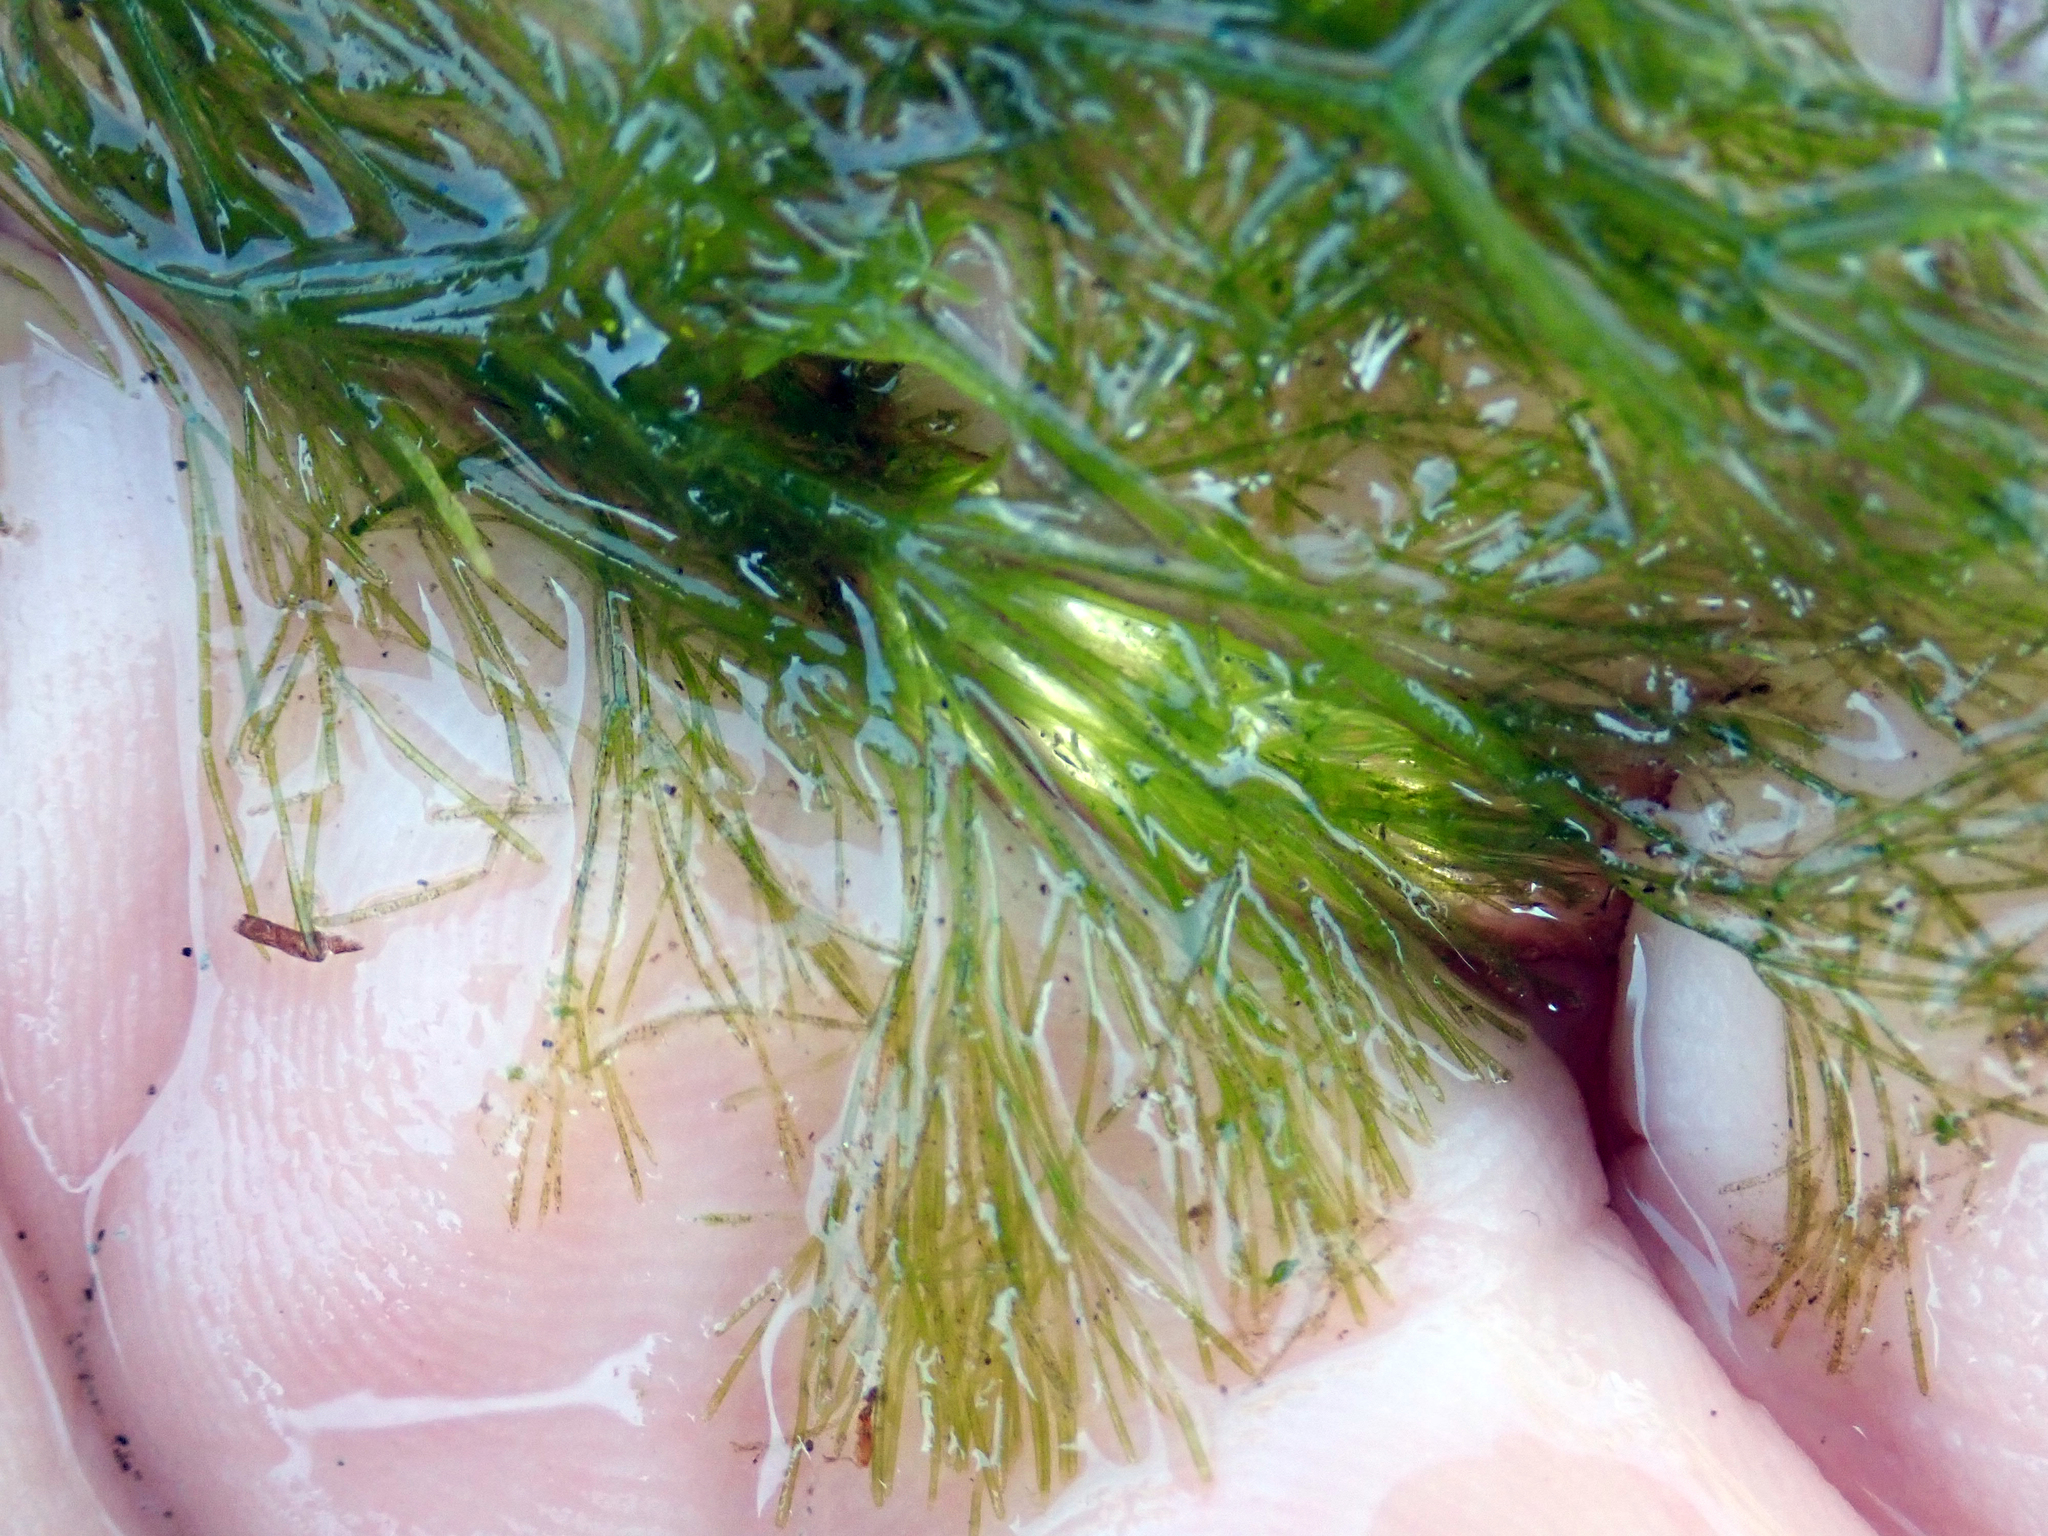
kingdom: Plantae
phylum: Charophyta
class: Charophyceae
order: Charales
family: Characeae
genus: Nitella
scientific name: Nitella pseudoflabellata
